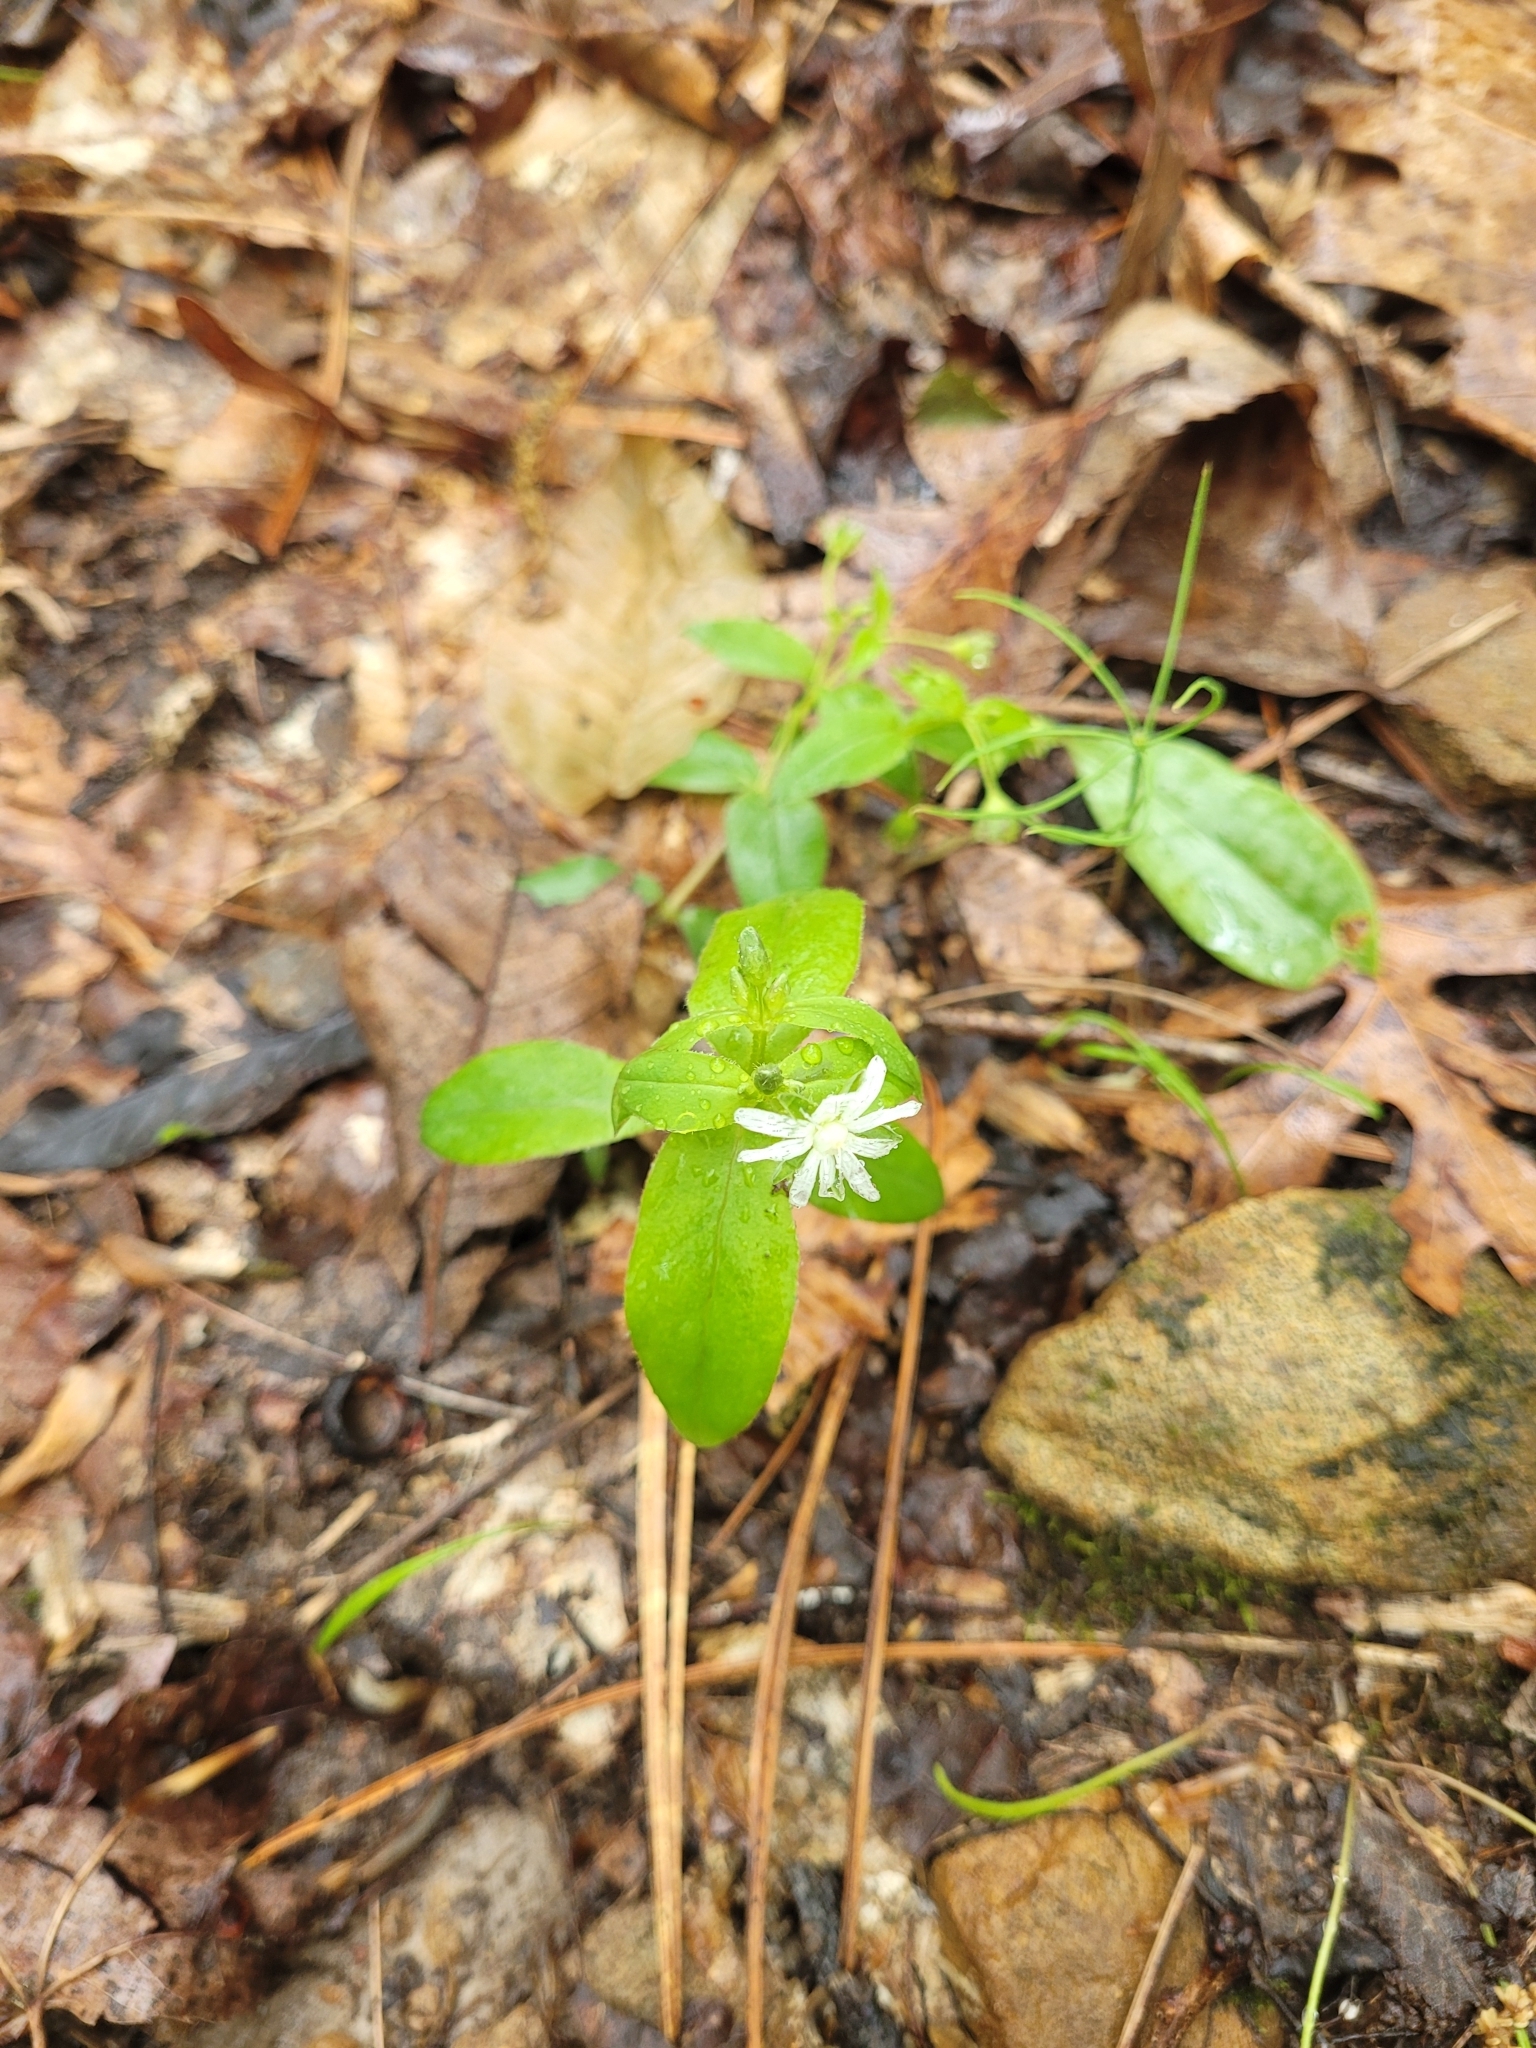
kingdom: Plantae
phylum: Tracheophyta
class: Magnoliopsida
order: Caryophyllales
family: Caryophyllaceae
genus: Stellaria
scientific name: Stellaria pubera
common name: Star chickweed
